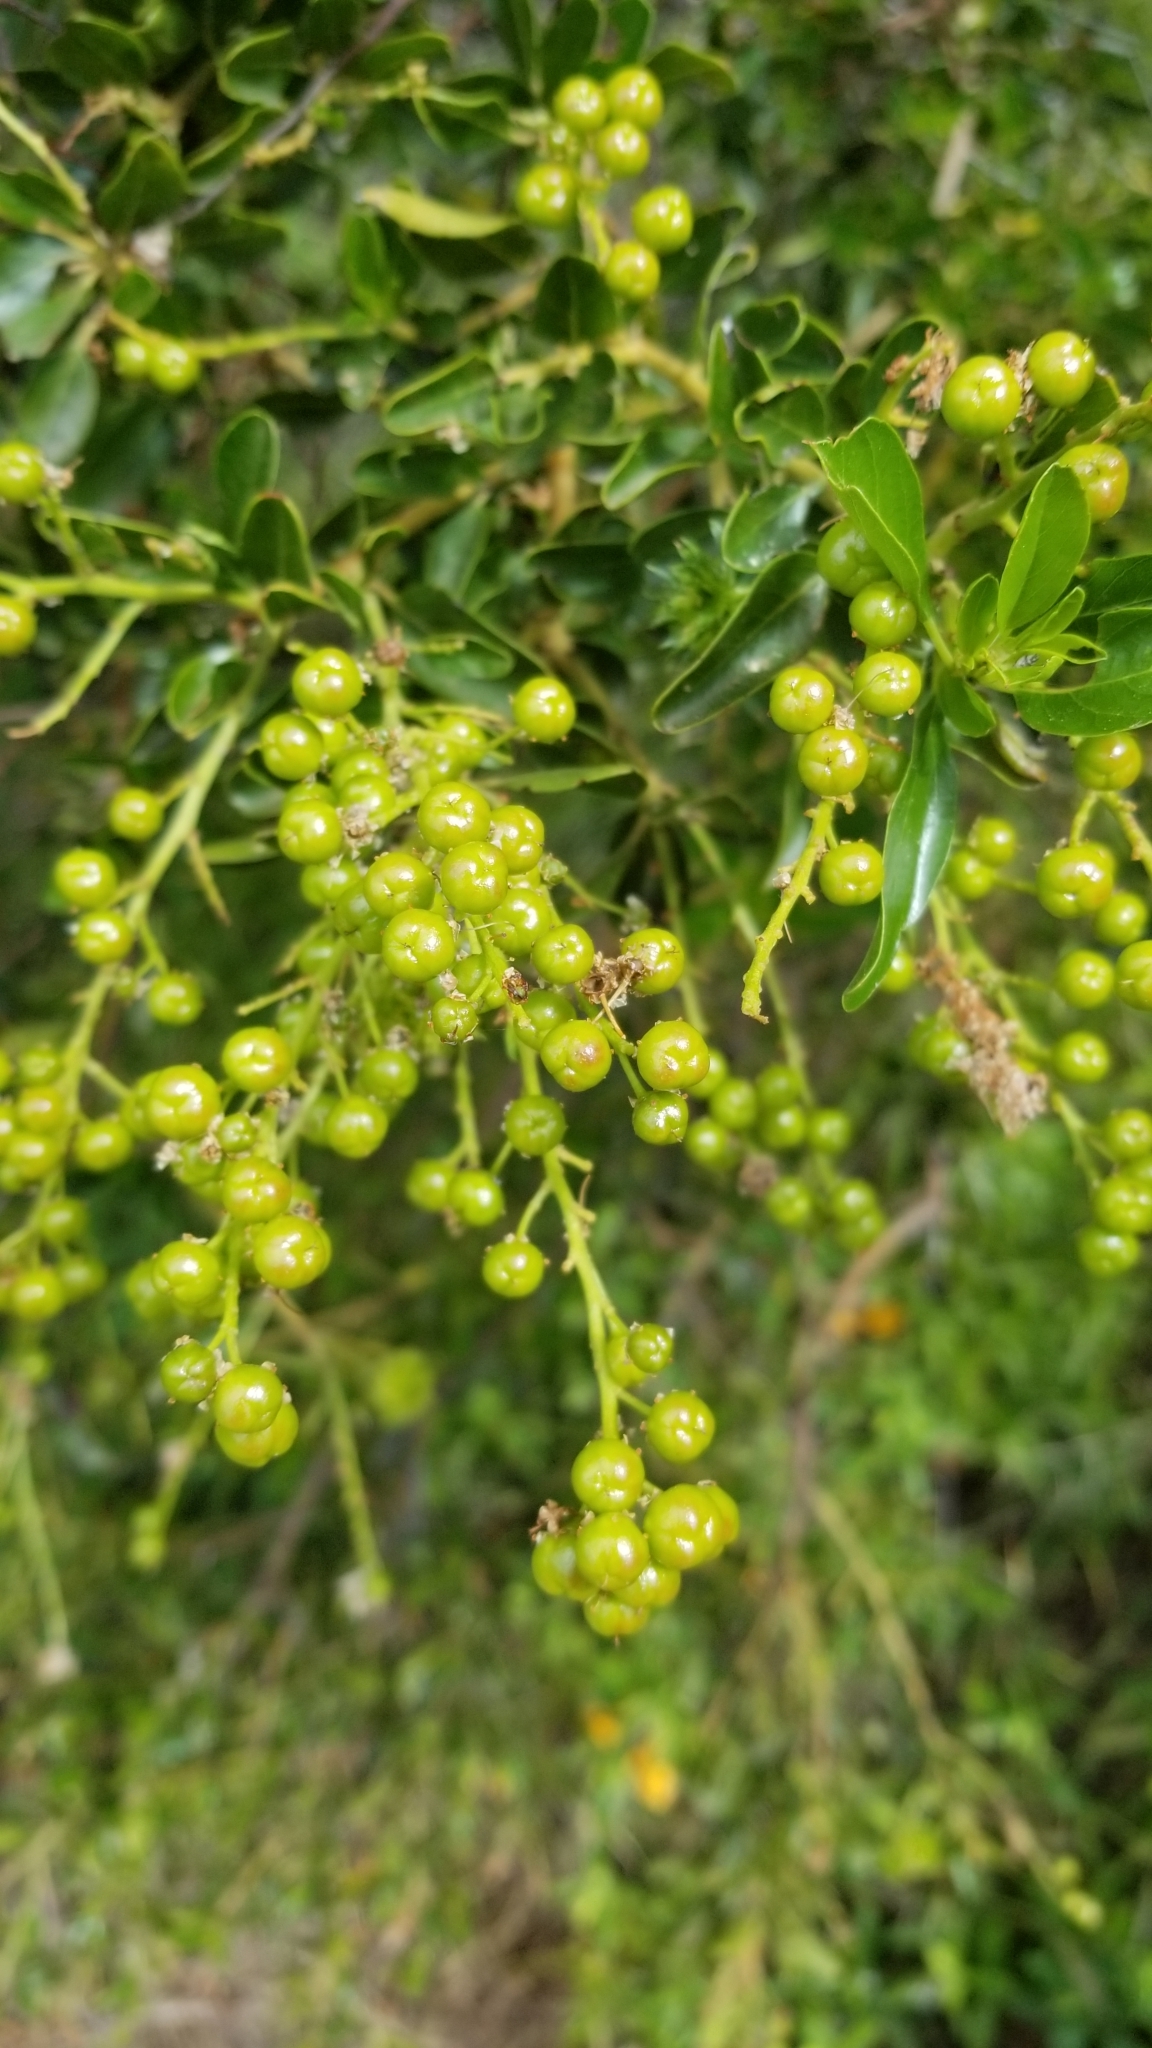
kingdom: Plantae
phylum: Tracheophyta
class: Magnoliopsida
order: Rosales
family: Rhamnaceae
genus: Ceanothus
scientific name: Ceanothus spinosus
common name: Greenbark whitethorn
